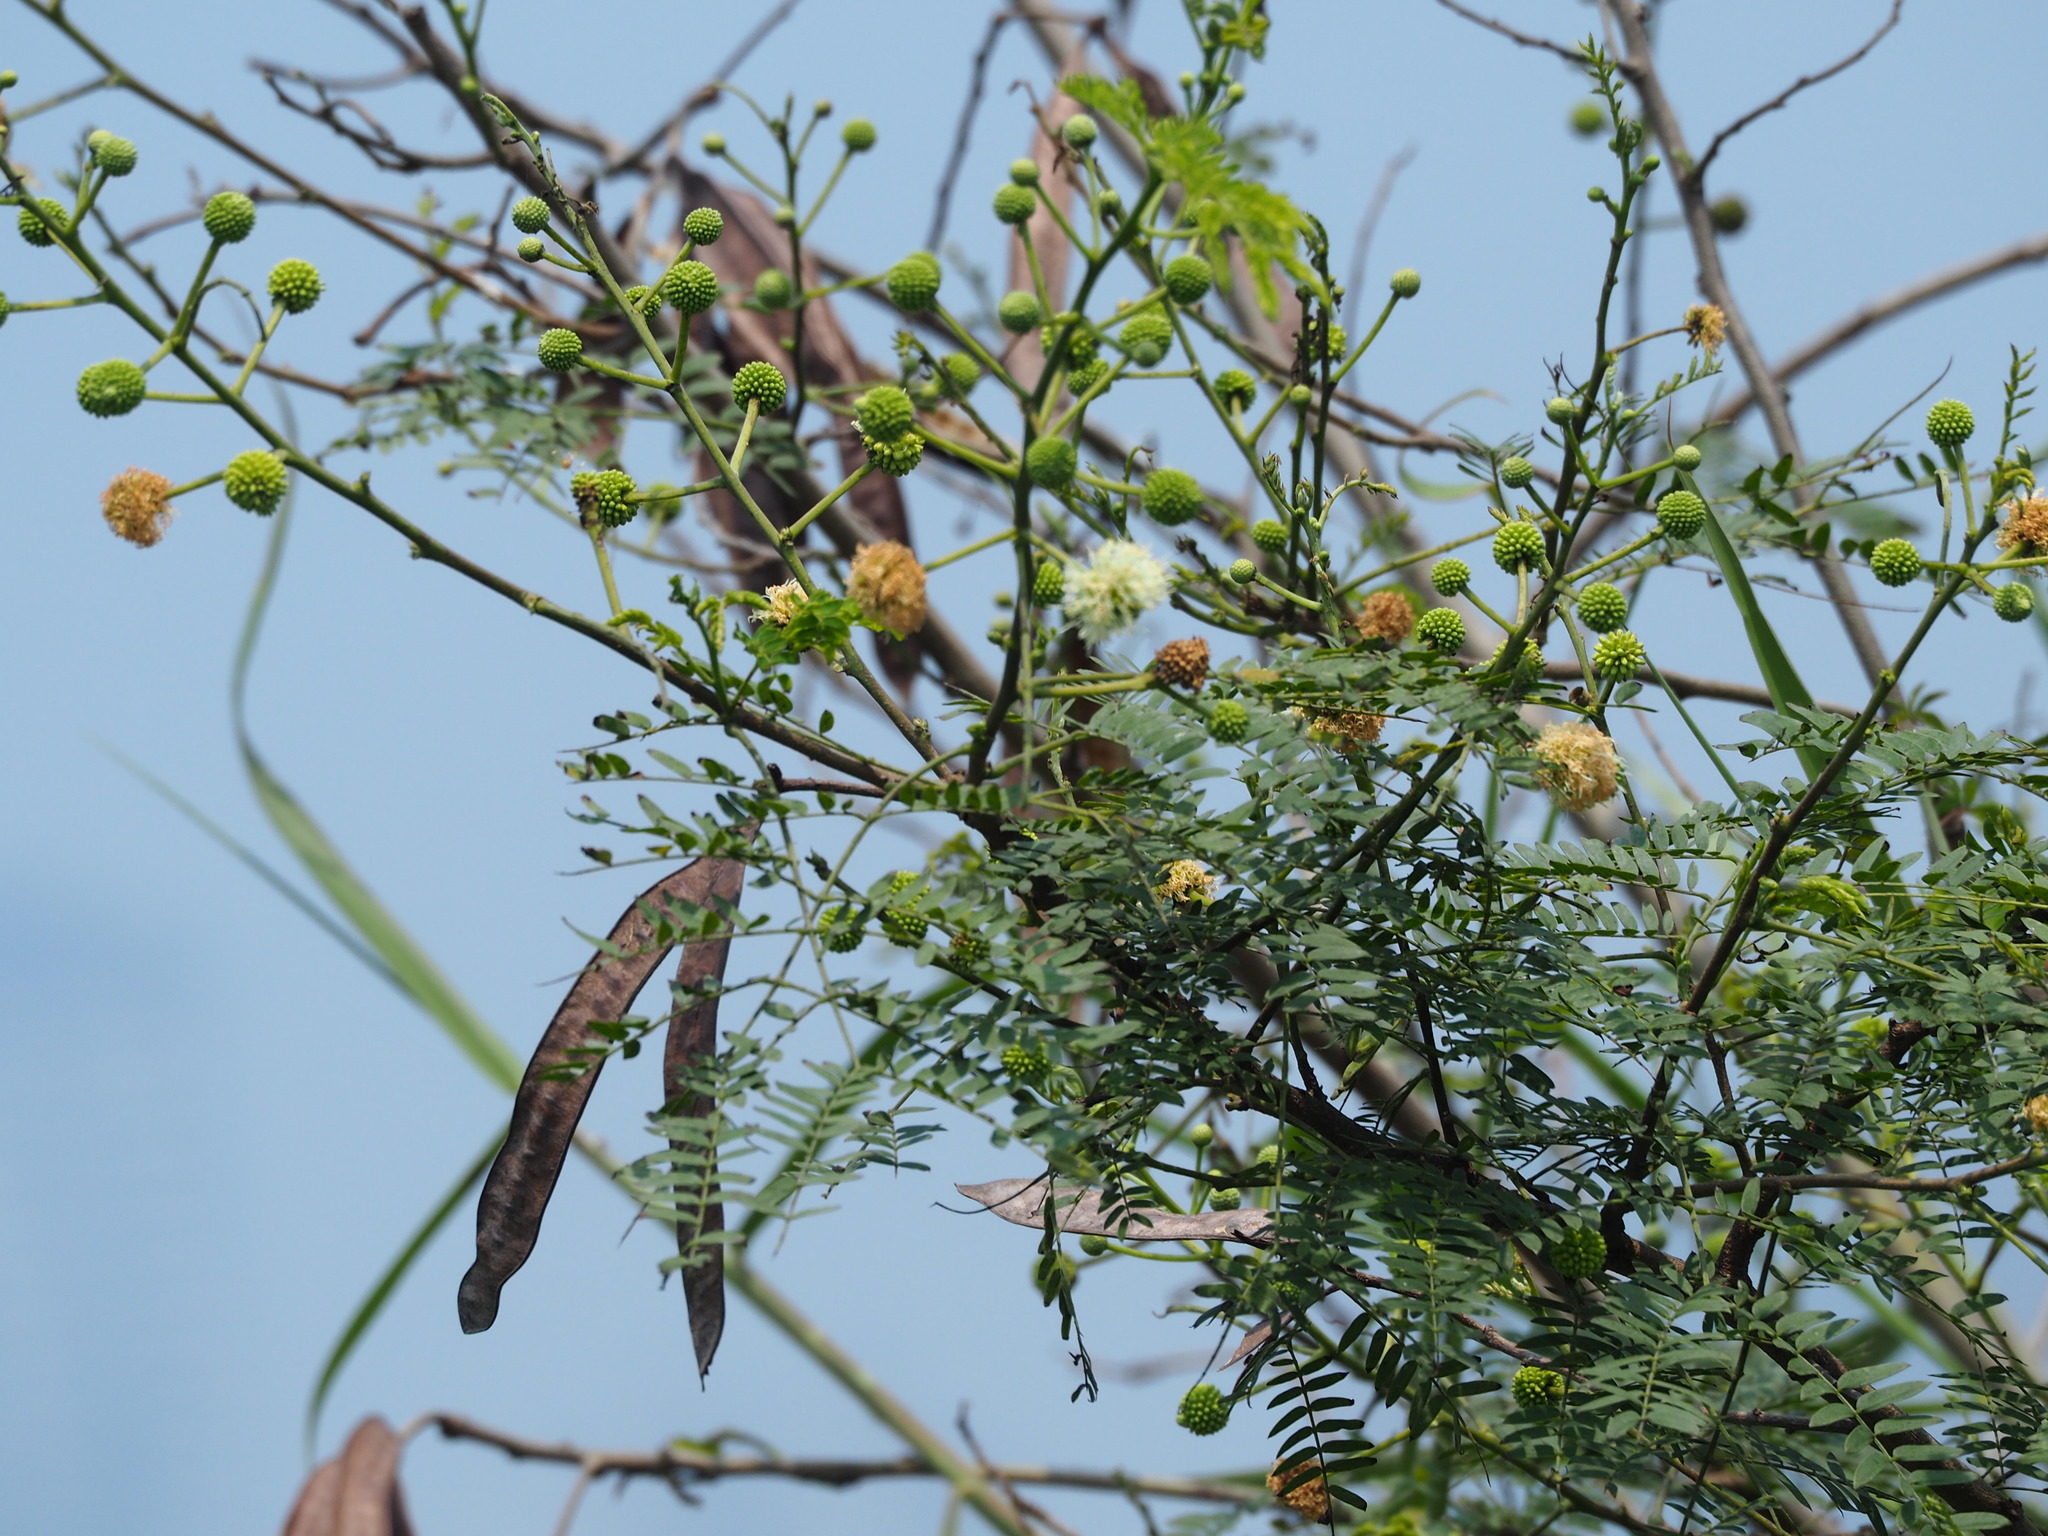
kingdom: Plantae
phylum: Tracheophyta
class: Magnoliopsida
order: Fabales
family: Fabaceae
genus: Leucaena
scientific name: Leucaena leucocephala
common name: White leadtree
